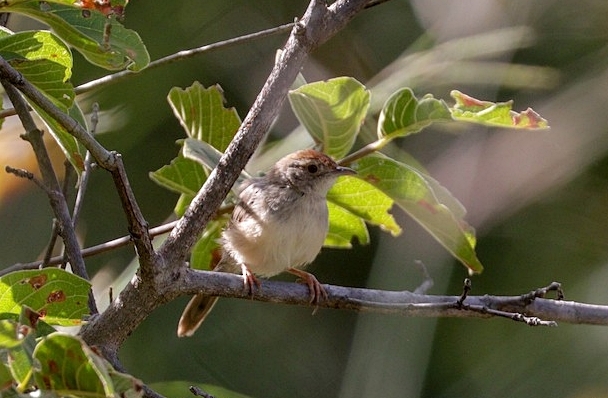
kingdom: Animalia
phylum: Chordata
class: Aves
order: Passeriformes
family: Cisticolidae
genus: Cisticola
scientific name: Cisticola aberrans
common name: Lazy cisticola
